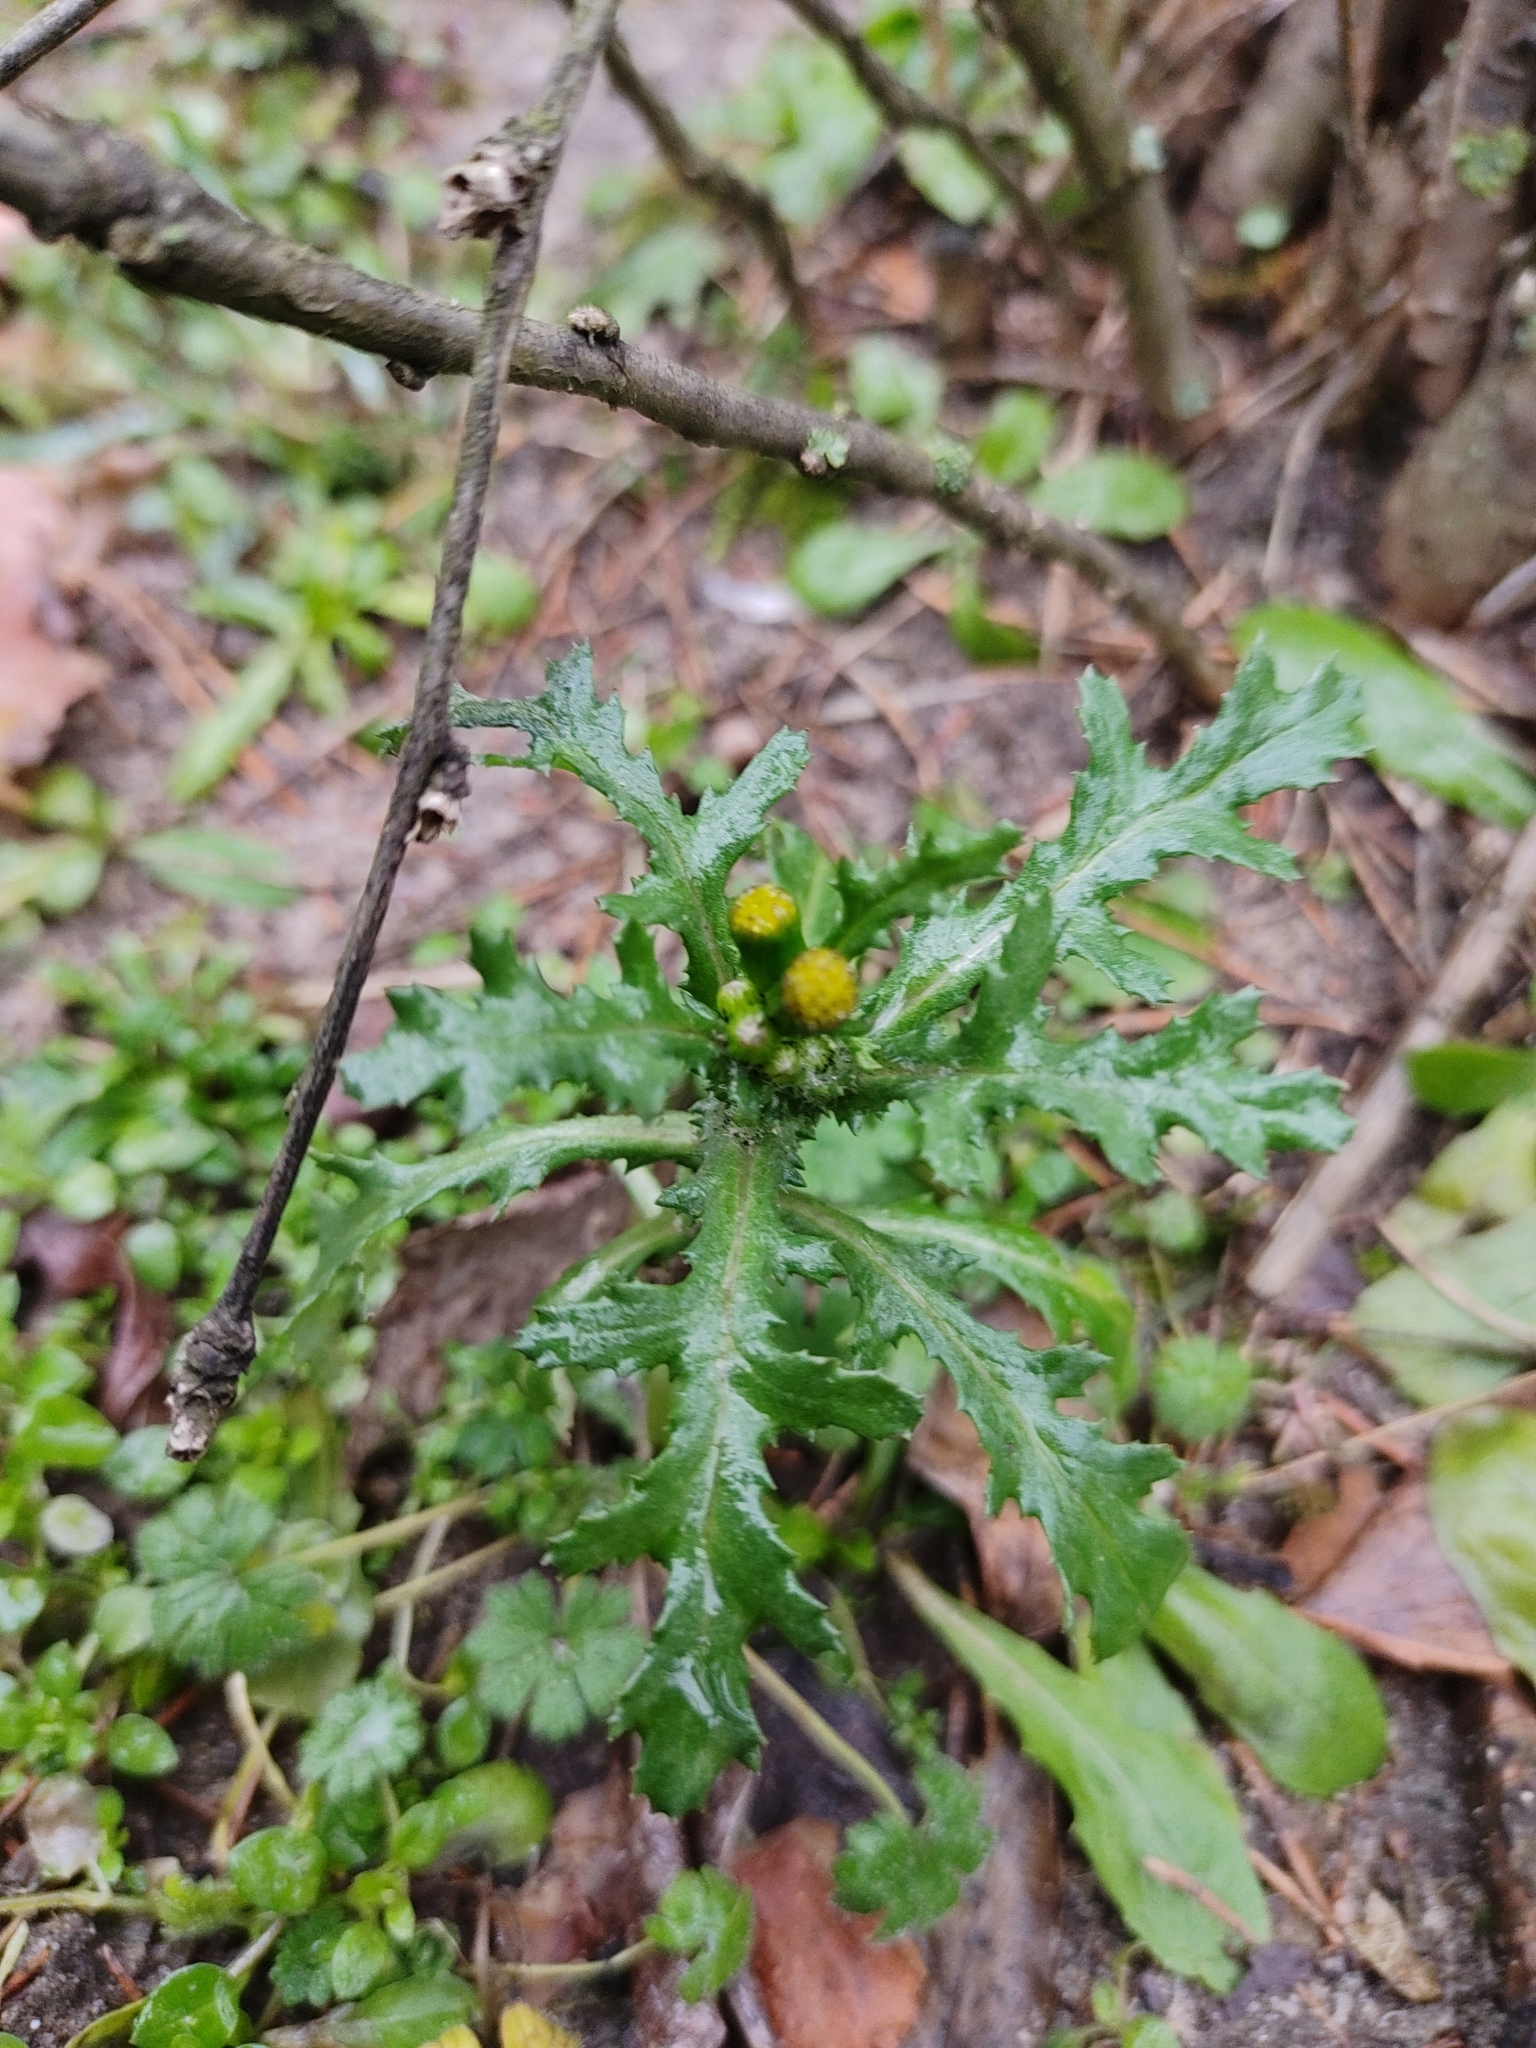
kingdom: Plantae
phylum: Tracheophyta
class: Magnoliopsida
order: Asterales
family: Asteraceae
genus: Senecio
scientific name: Senecio vulgaris
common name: Old-man-in-the-spring
